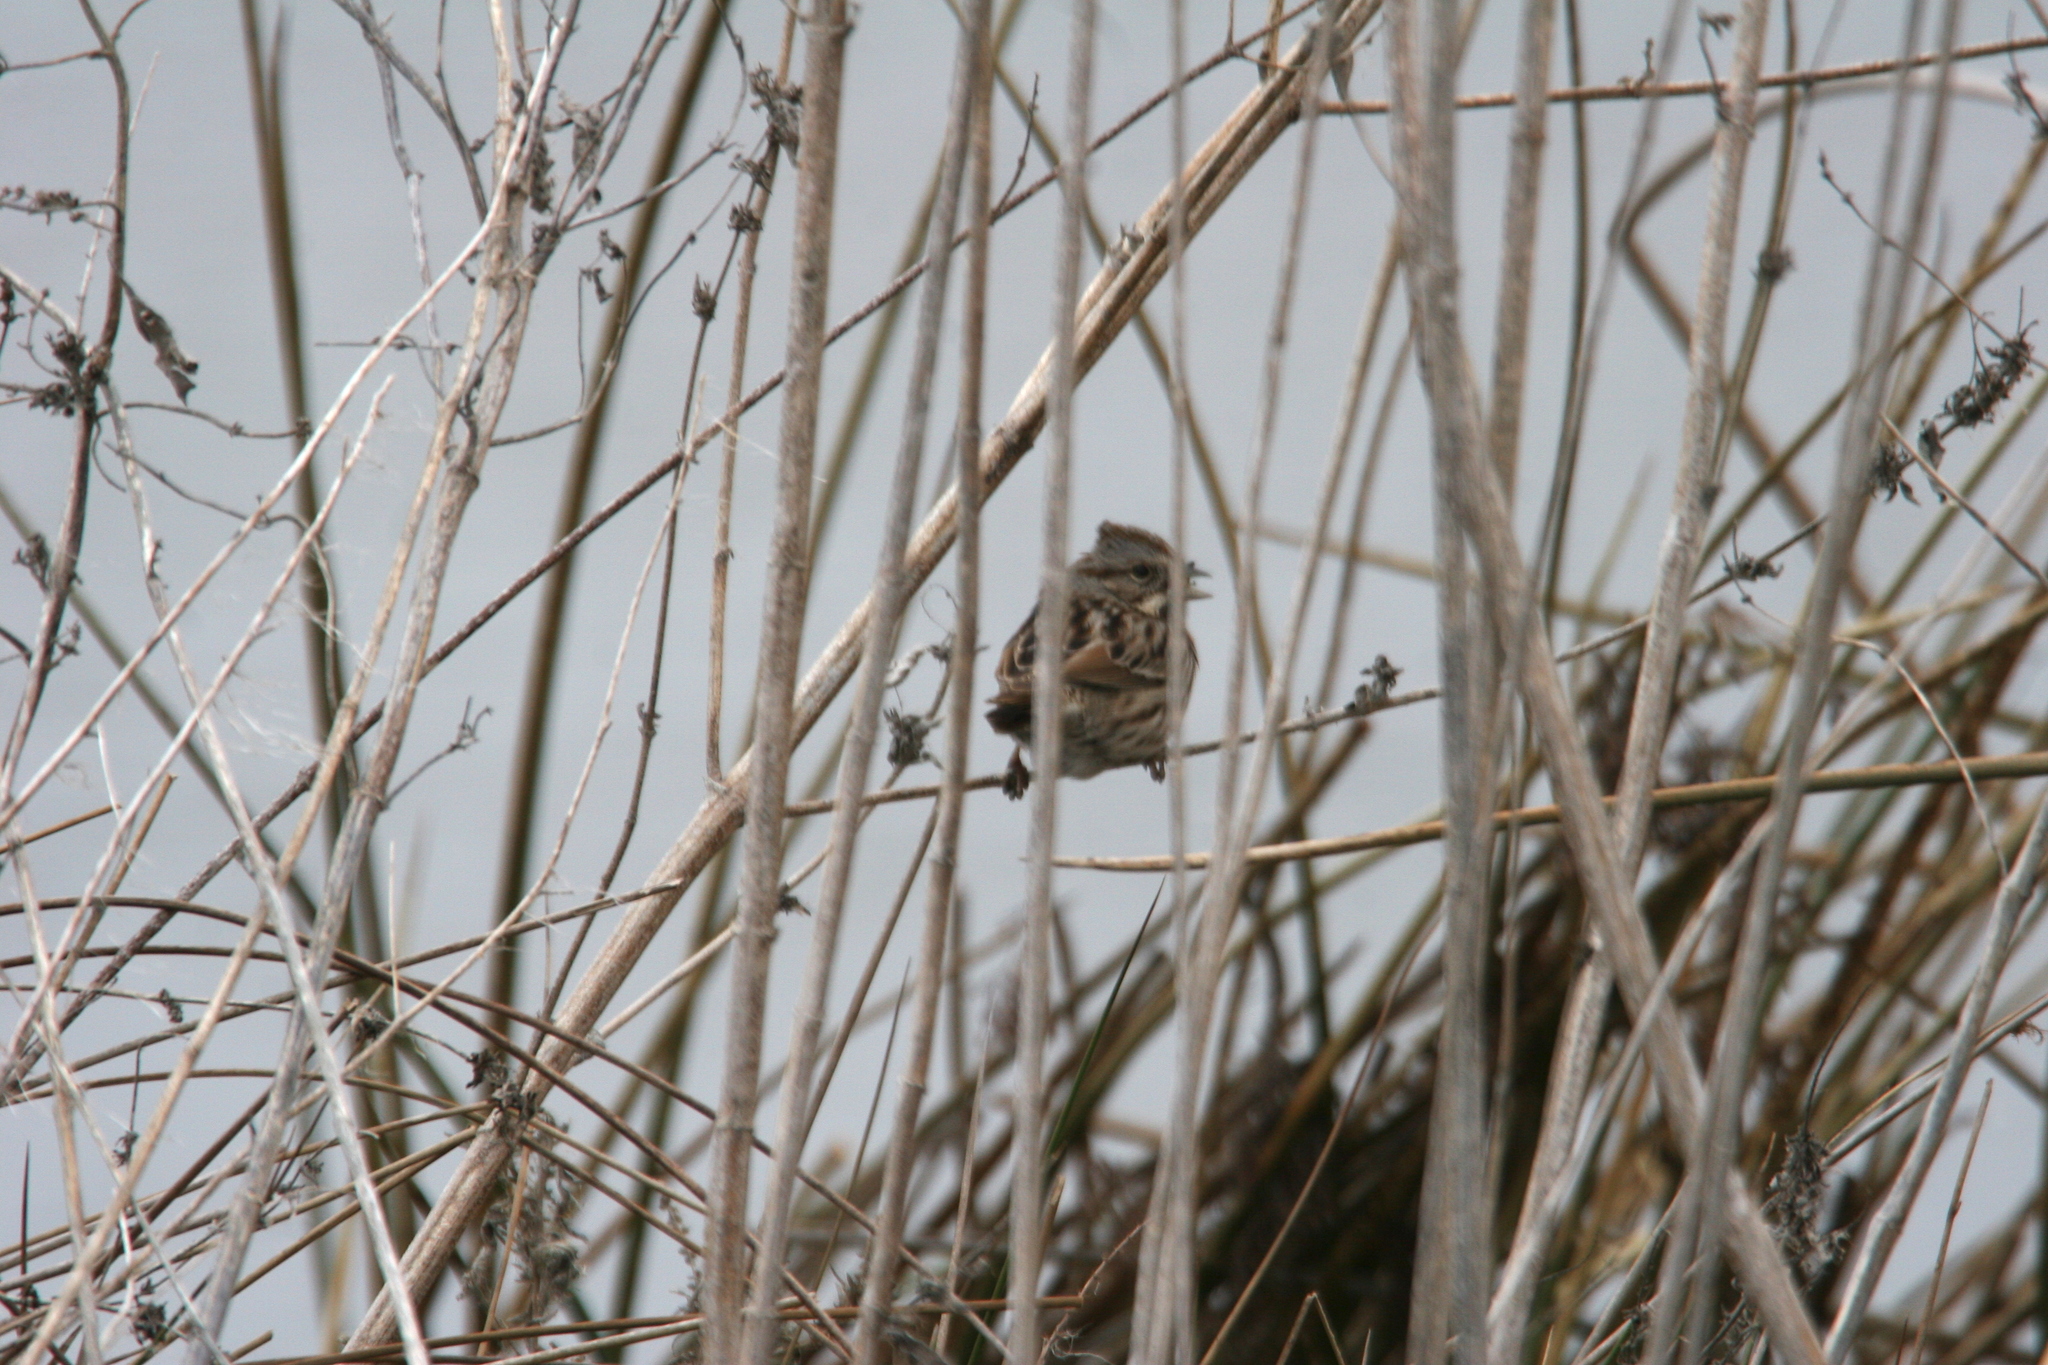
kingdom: Animalia
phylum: Chordata
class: Aves
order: Passeriformes
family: Passerellidae
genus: Melospiza
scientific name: Melospiza melodia
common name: Song sparrow
